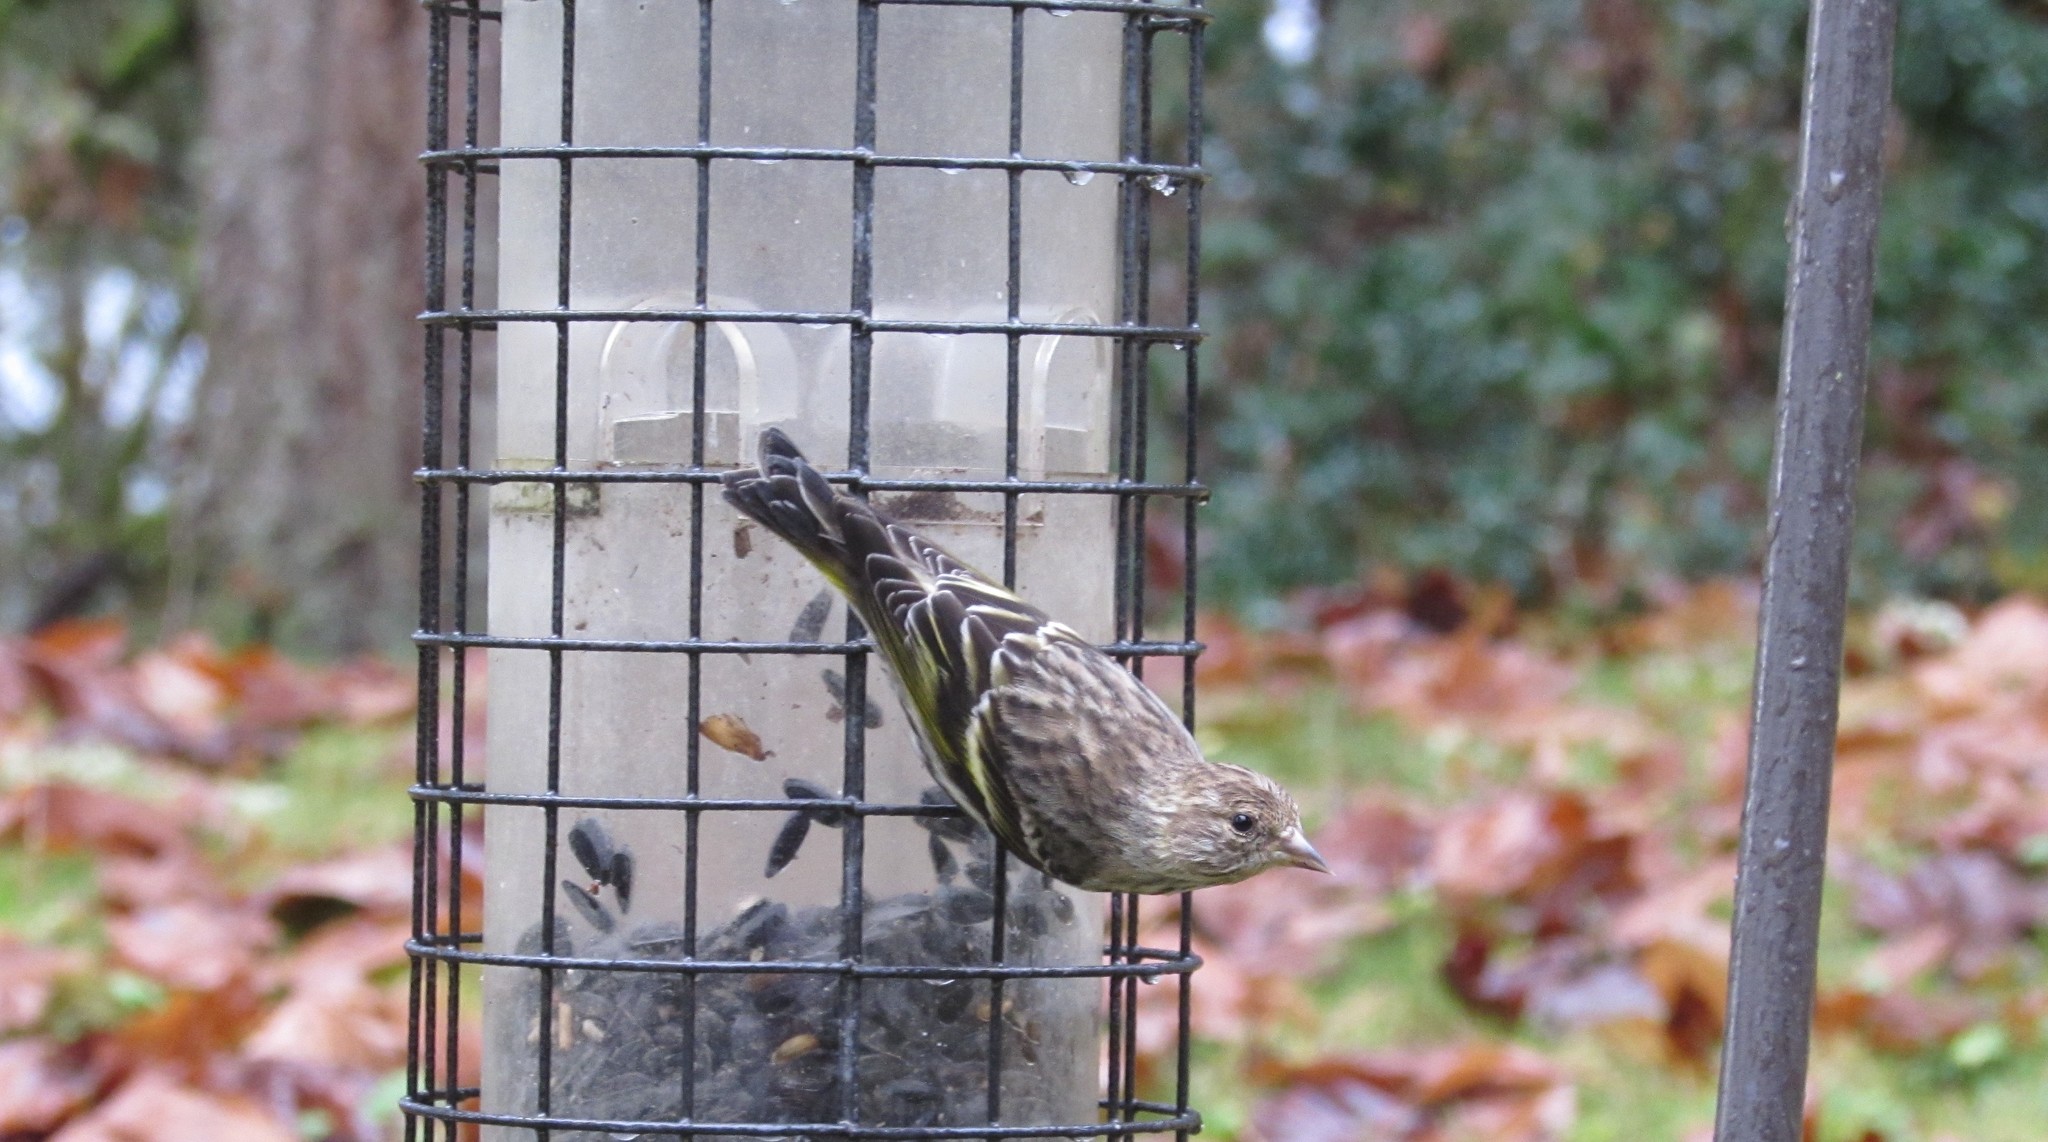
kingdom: Animalia
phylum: Chordata
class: Aves
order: Passeriformes
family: Fringillidae
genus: Spinus
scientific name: Spinus pinus
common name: Pine siskin
